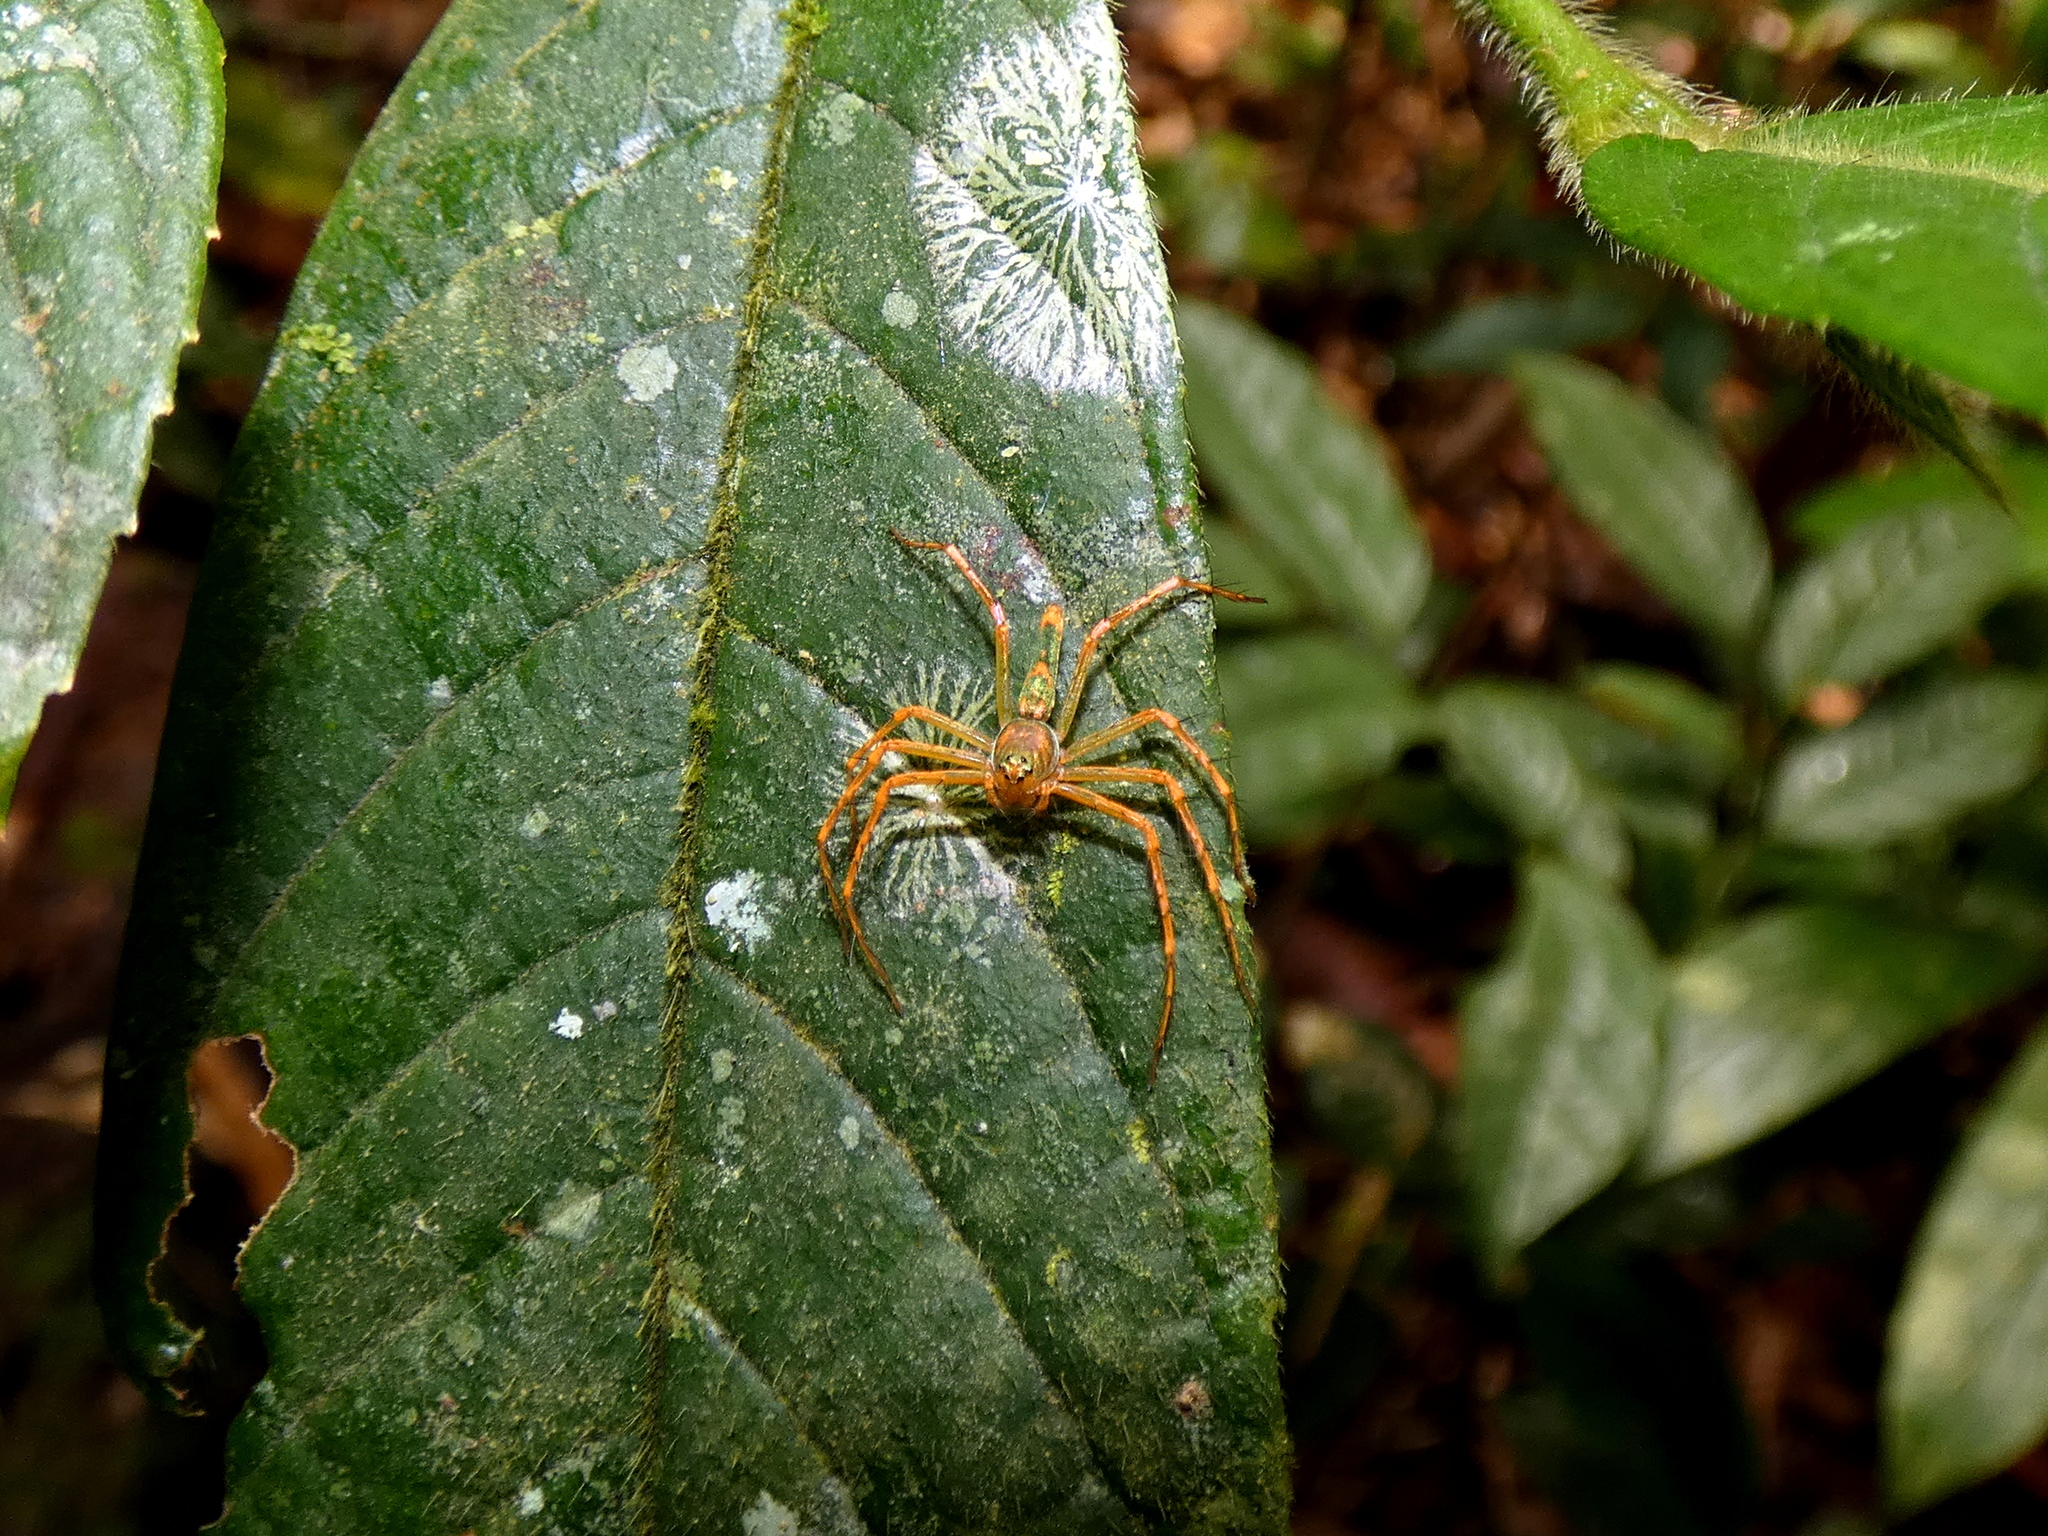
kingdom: Animalia
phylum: Arthropoda
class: Arachnida
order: Araneae
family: Oxyopidae
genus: Hamadruas
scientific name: Hamadruas superba
